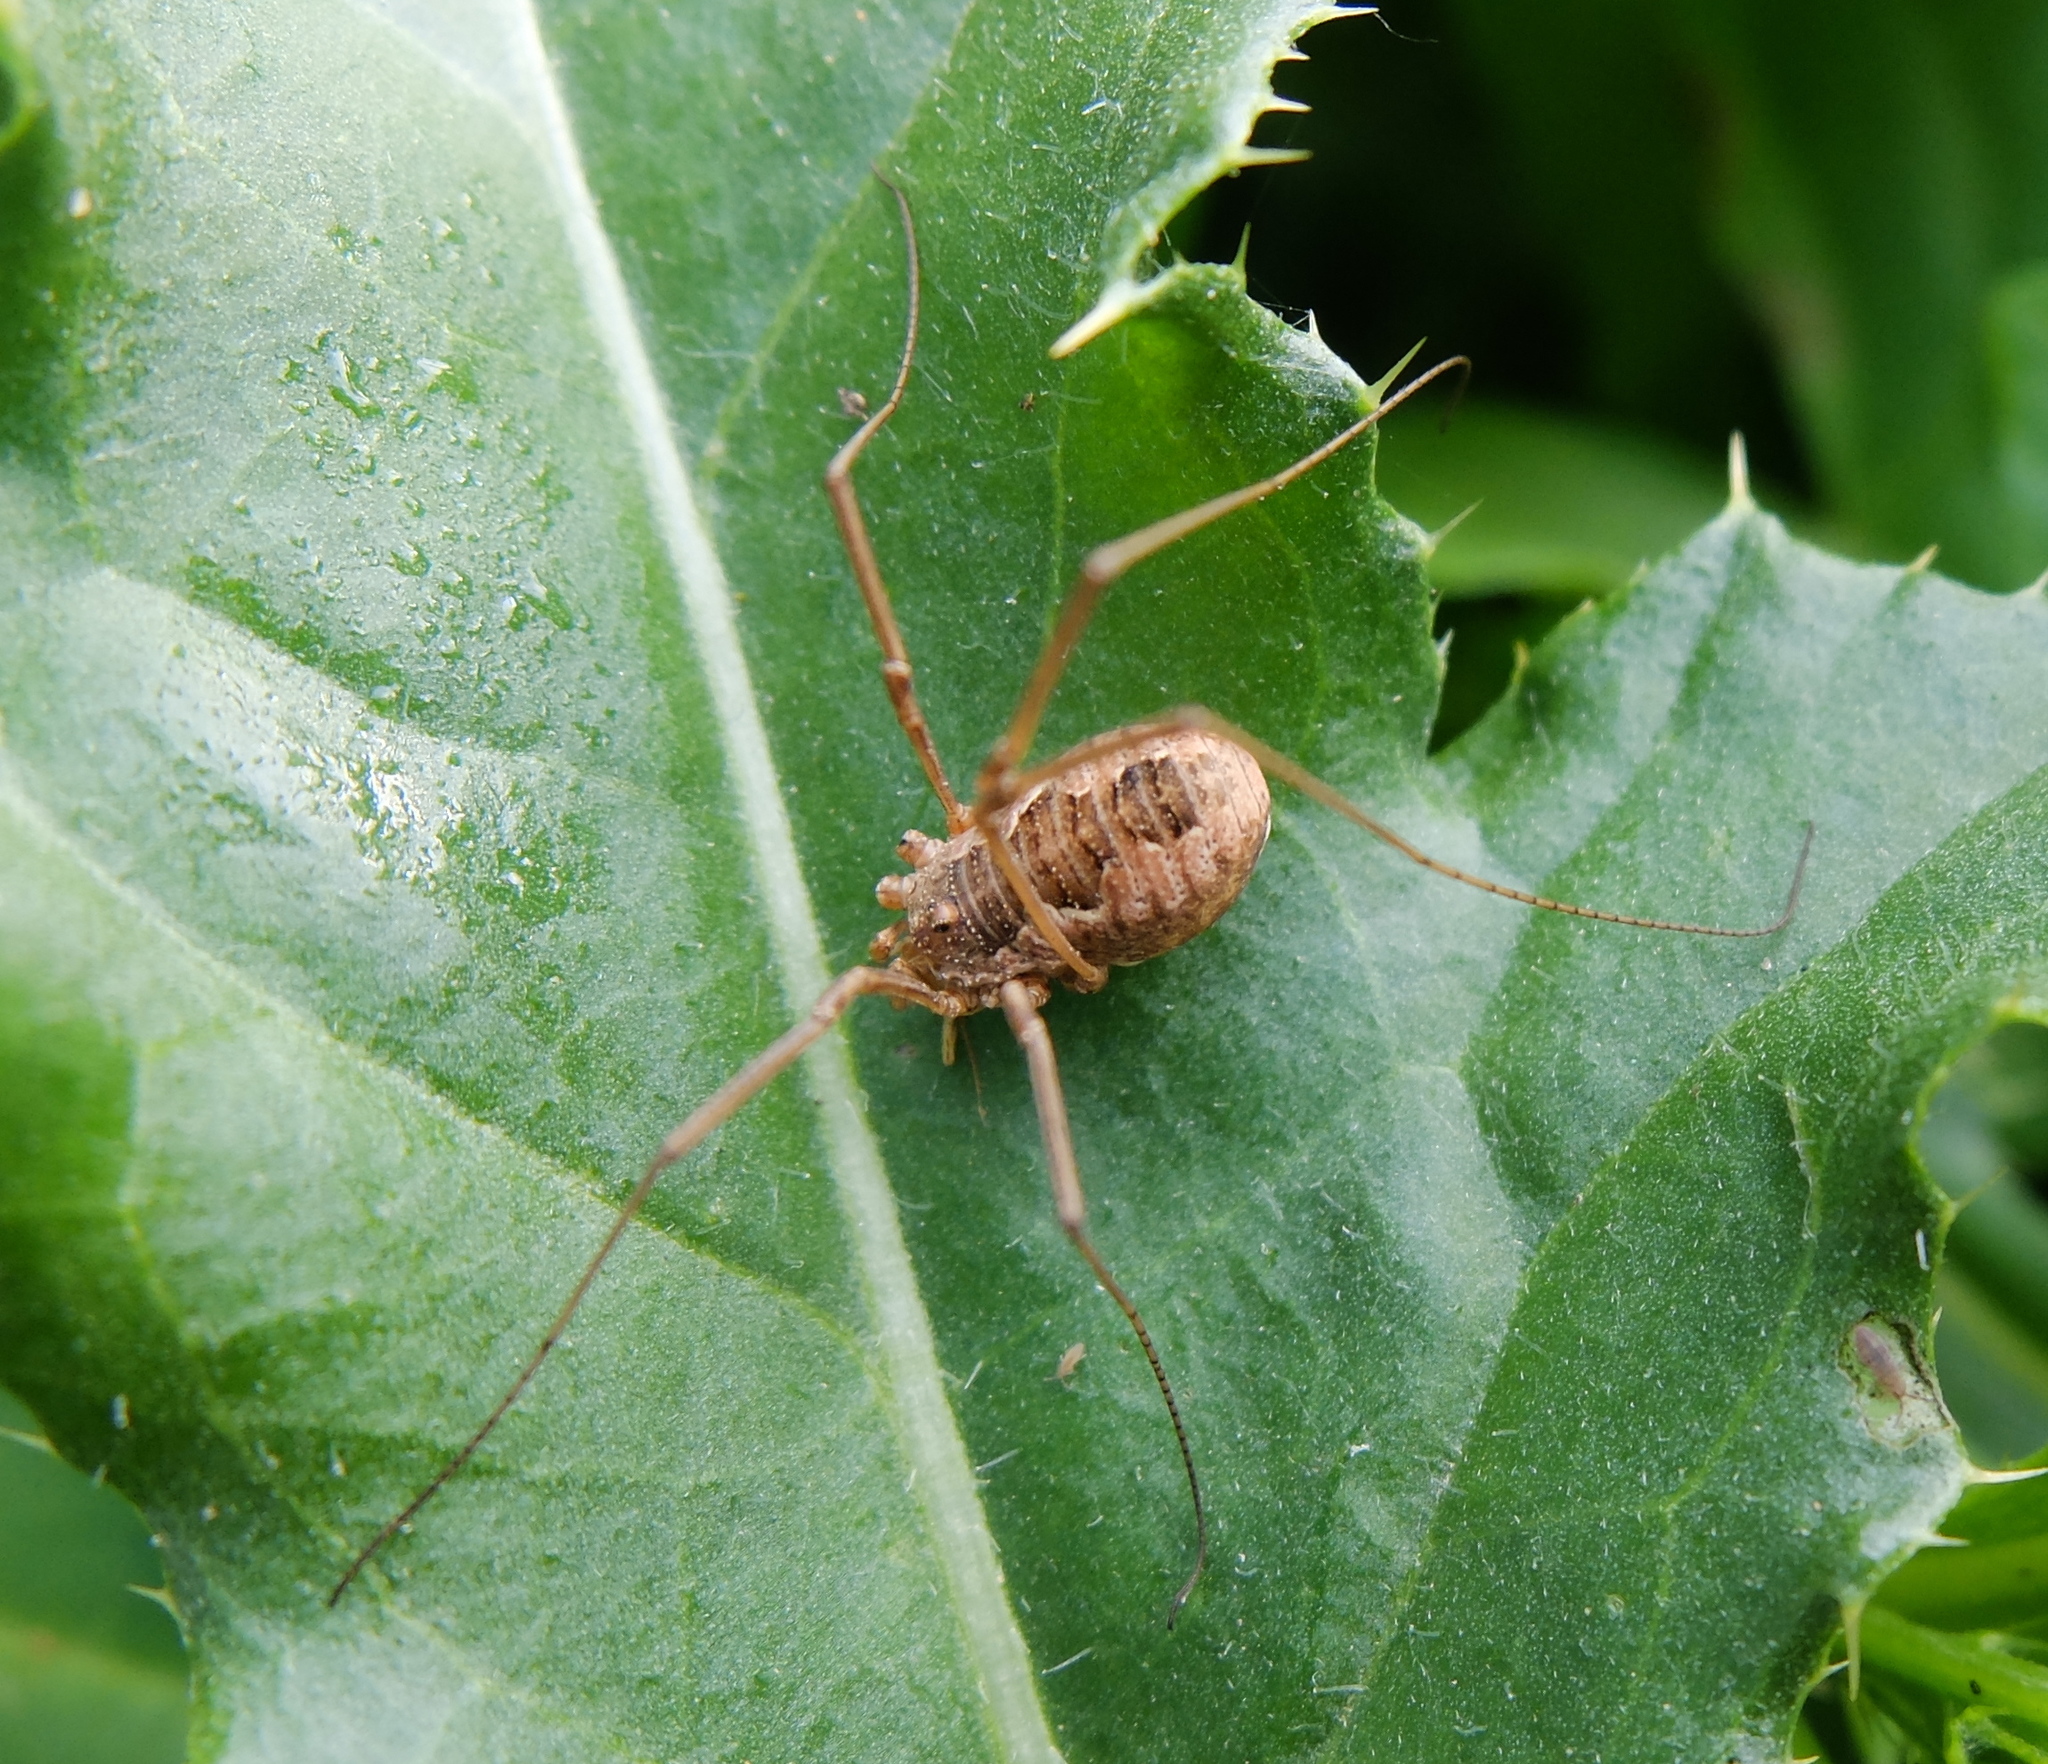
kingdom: Animalia
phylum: Arthropoda
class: Arachnida
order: Opiliones
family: Phalangiidae
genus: Phalangium
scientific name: Phalangium opilio
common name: Daddy longleg
